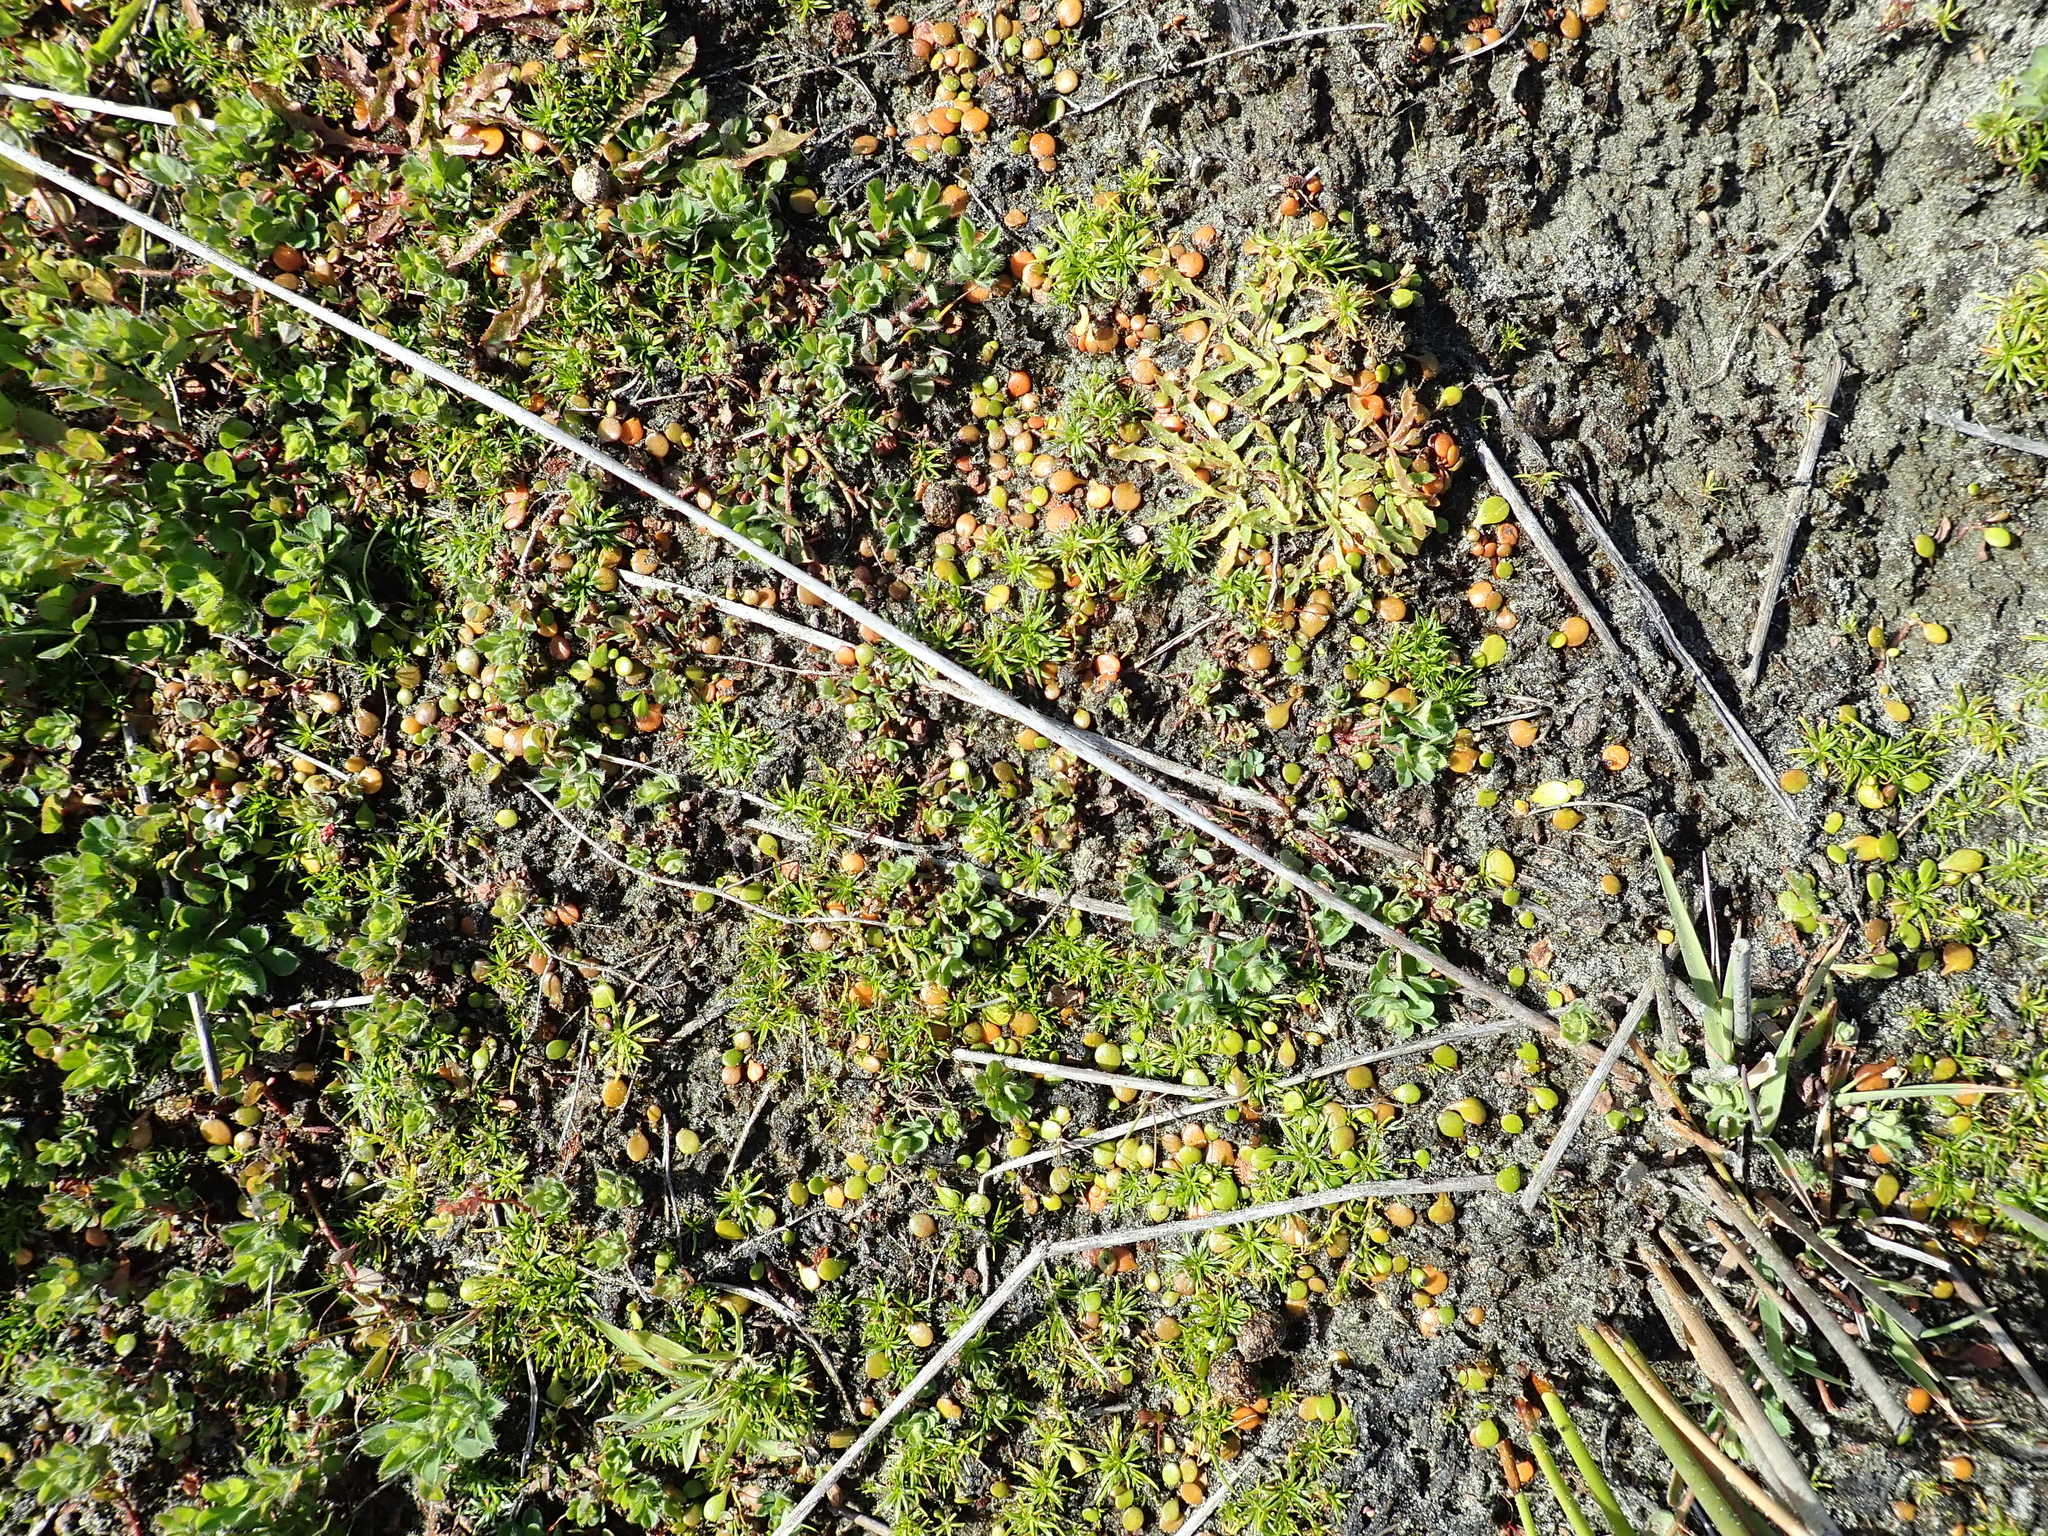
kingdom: Plantae
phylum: Tracheophyta
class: Magnoliopsida
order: Asterales
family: Goodeniaceae
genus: Goodenia
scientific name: Goodenia heenanii
